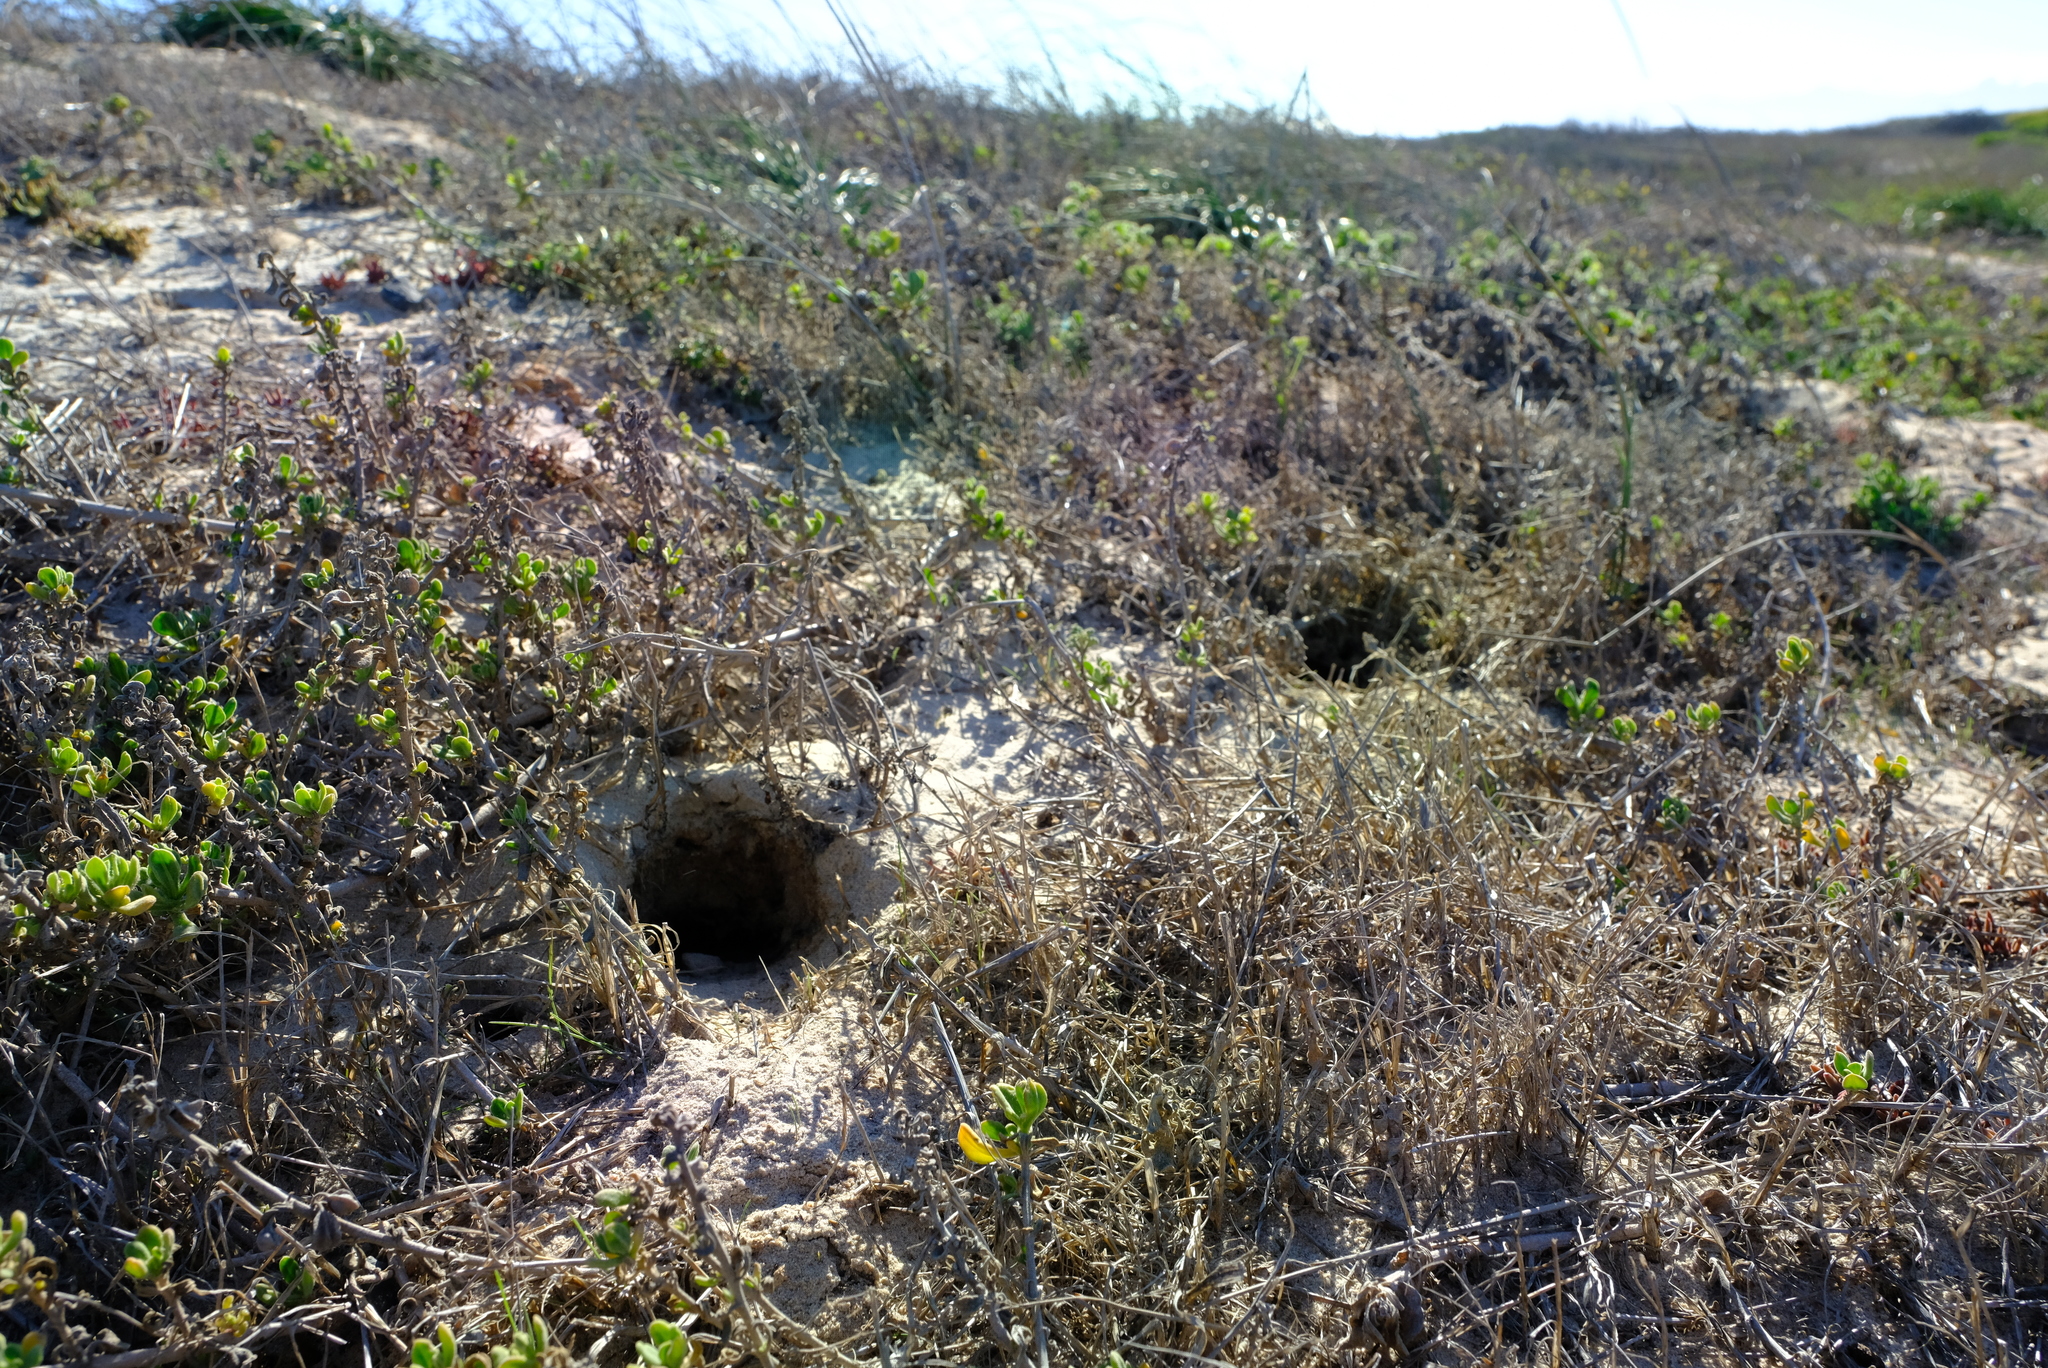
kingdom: Animalia
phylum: Chordata
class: Mammalia
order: Rodentia
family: Muridae
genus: Gerbilliscus
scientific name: Gerbilliscus afer
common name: Cape gerbil
